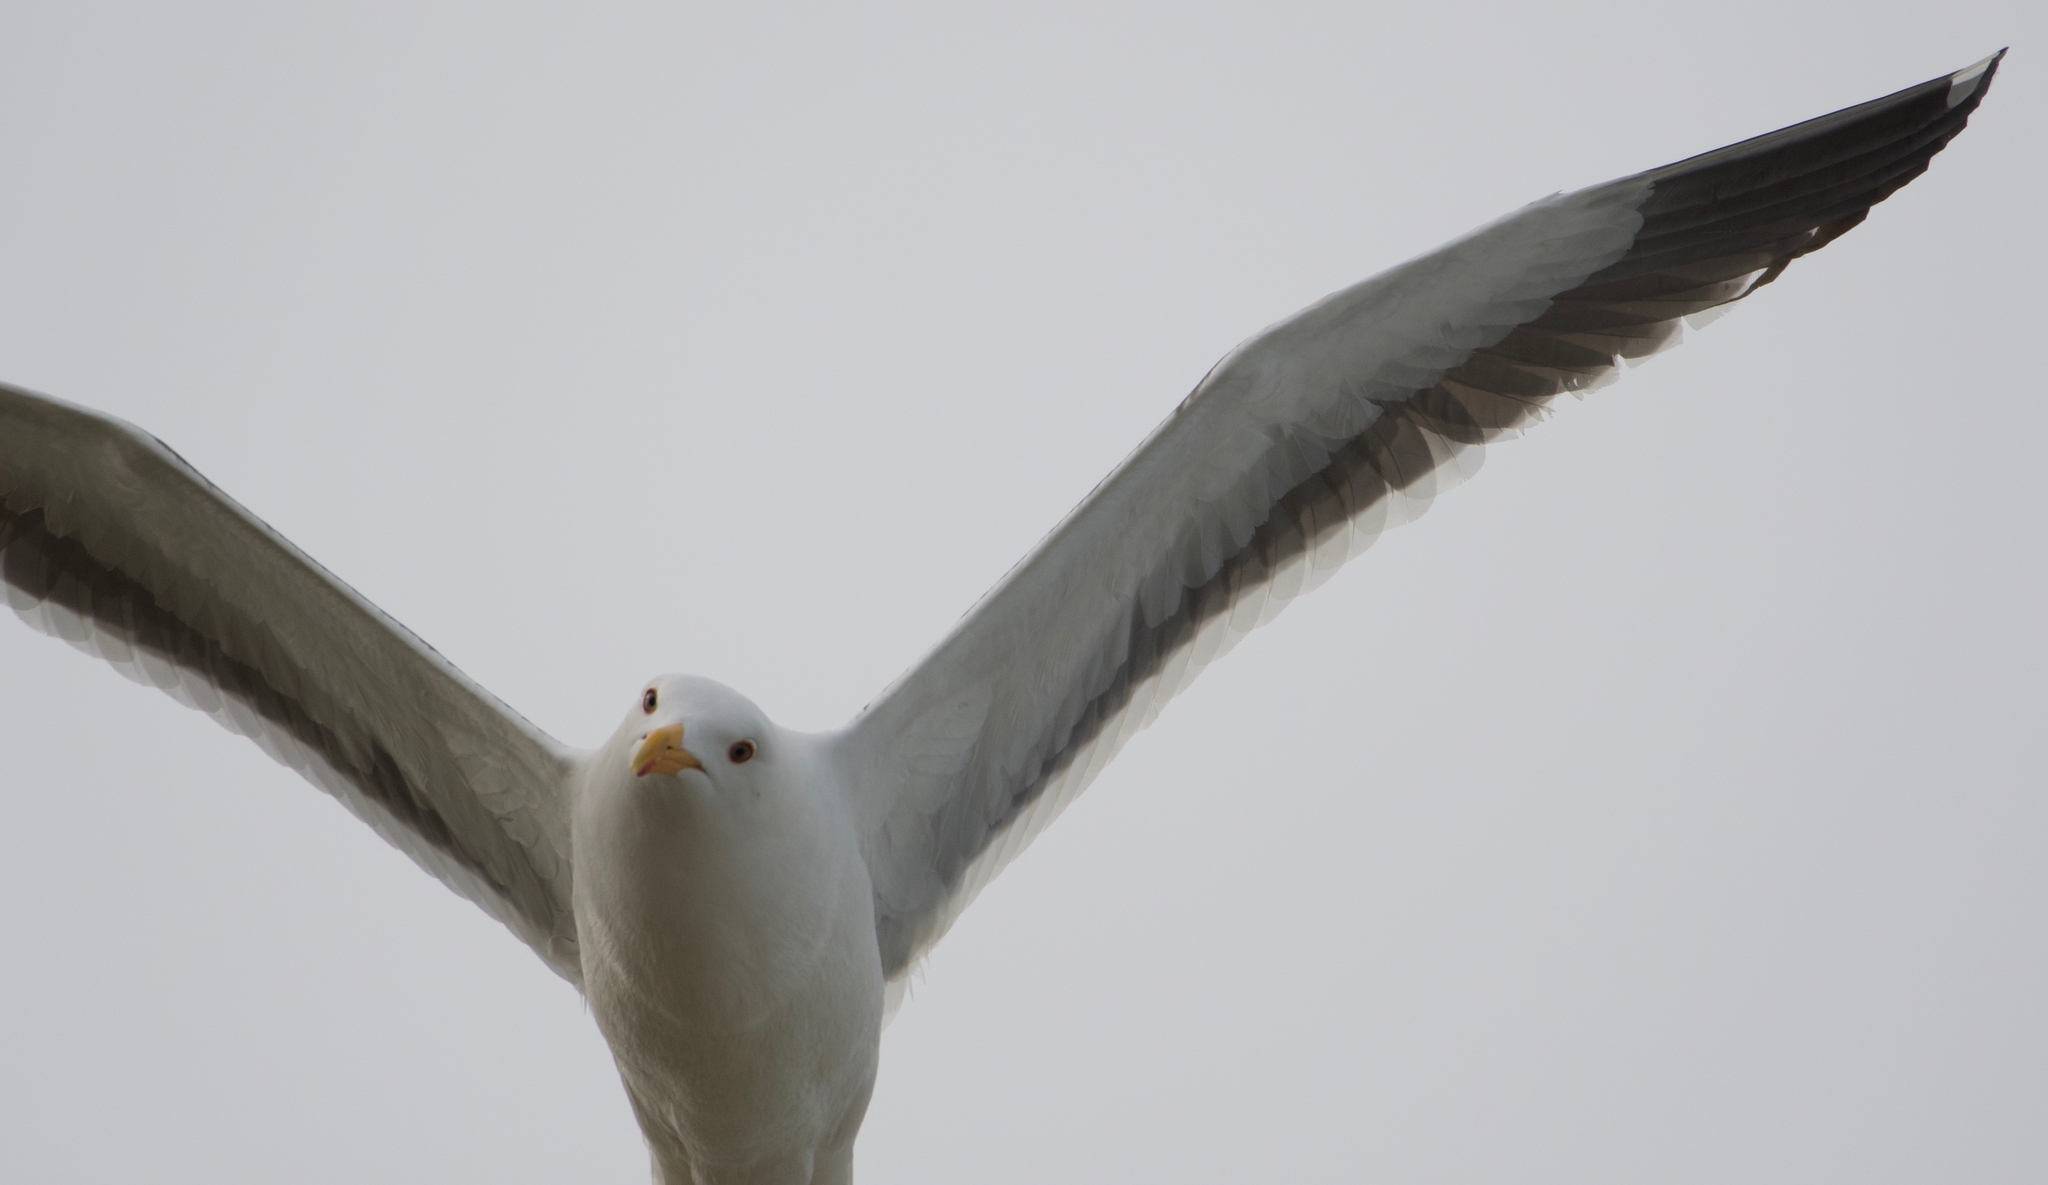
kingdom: Animalia
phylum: Chordata
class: Aves
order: Charadriiformes
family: Laridae
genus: Larus
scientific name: Larus occidentalis
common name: Western gull
